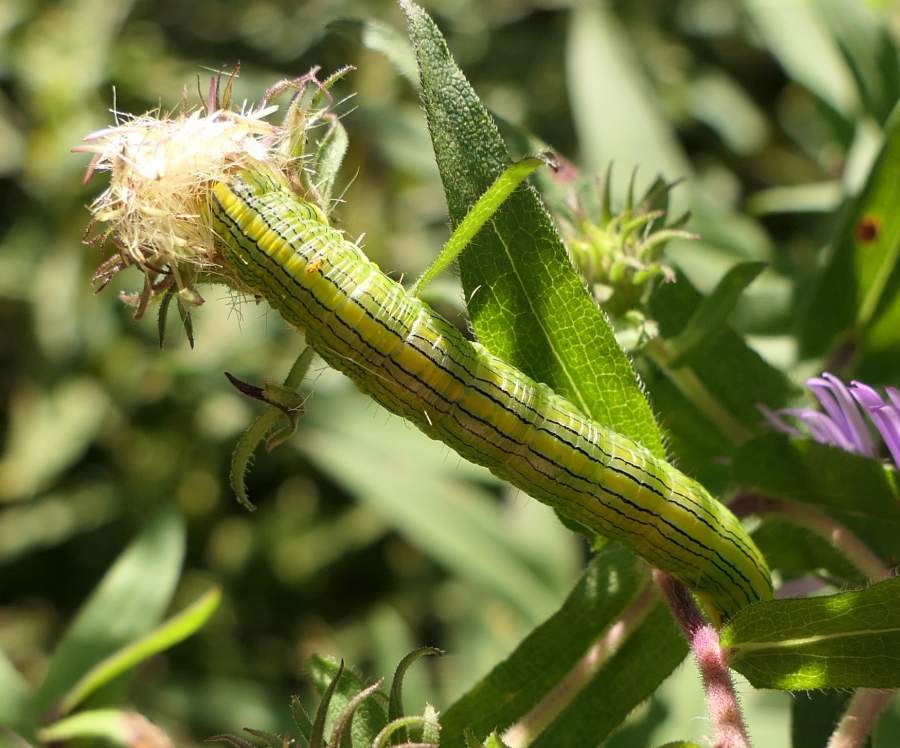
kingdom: Animalia
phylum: Arthropoda
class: Insecta
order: Lepidoptera
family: Noctuidae
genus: Cucullia
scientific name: Cucullia asteroides
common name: Asteroid moth
